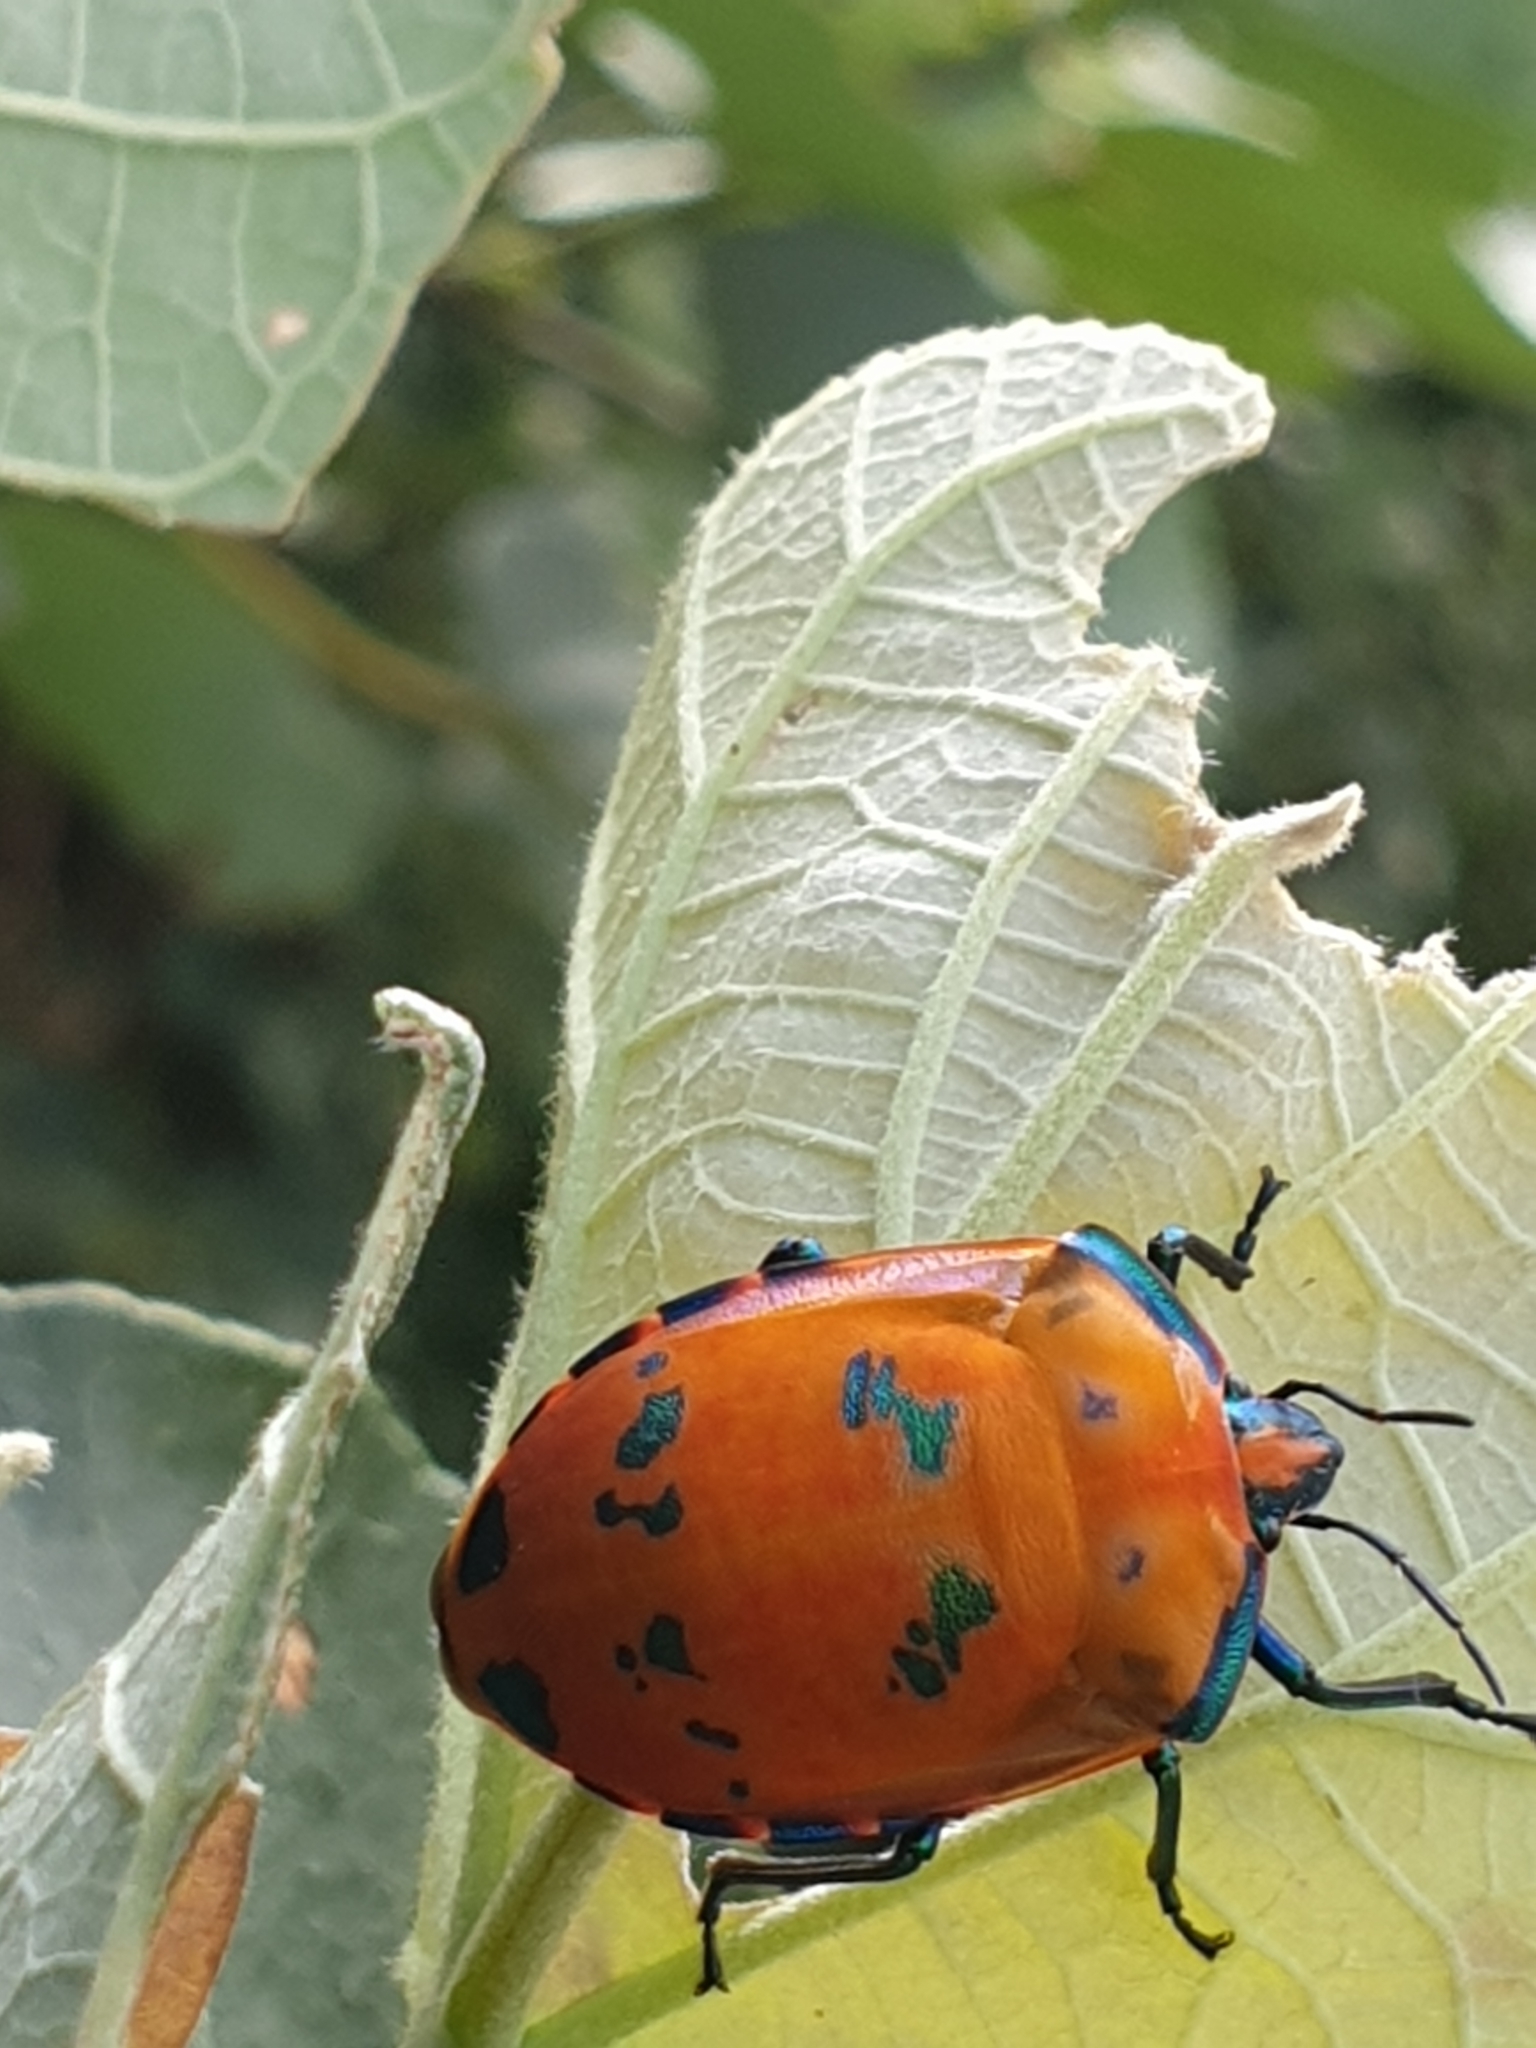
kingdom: Animalia
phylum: Arthropoda
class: Insecta
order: Hemiptera
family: Scutelleridae
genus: Tectocoris
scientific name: Tectocoris diophthalmus
